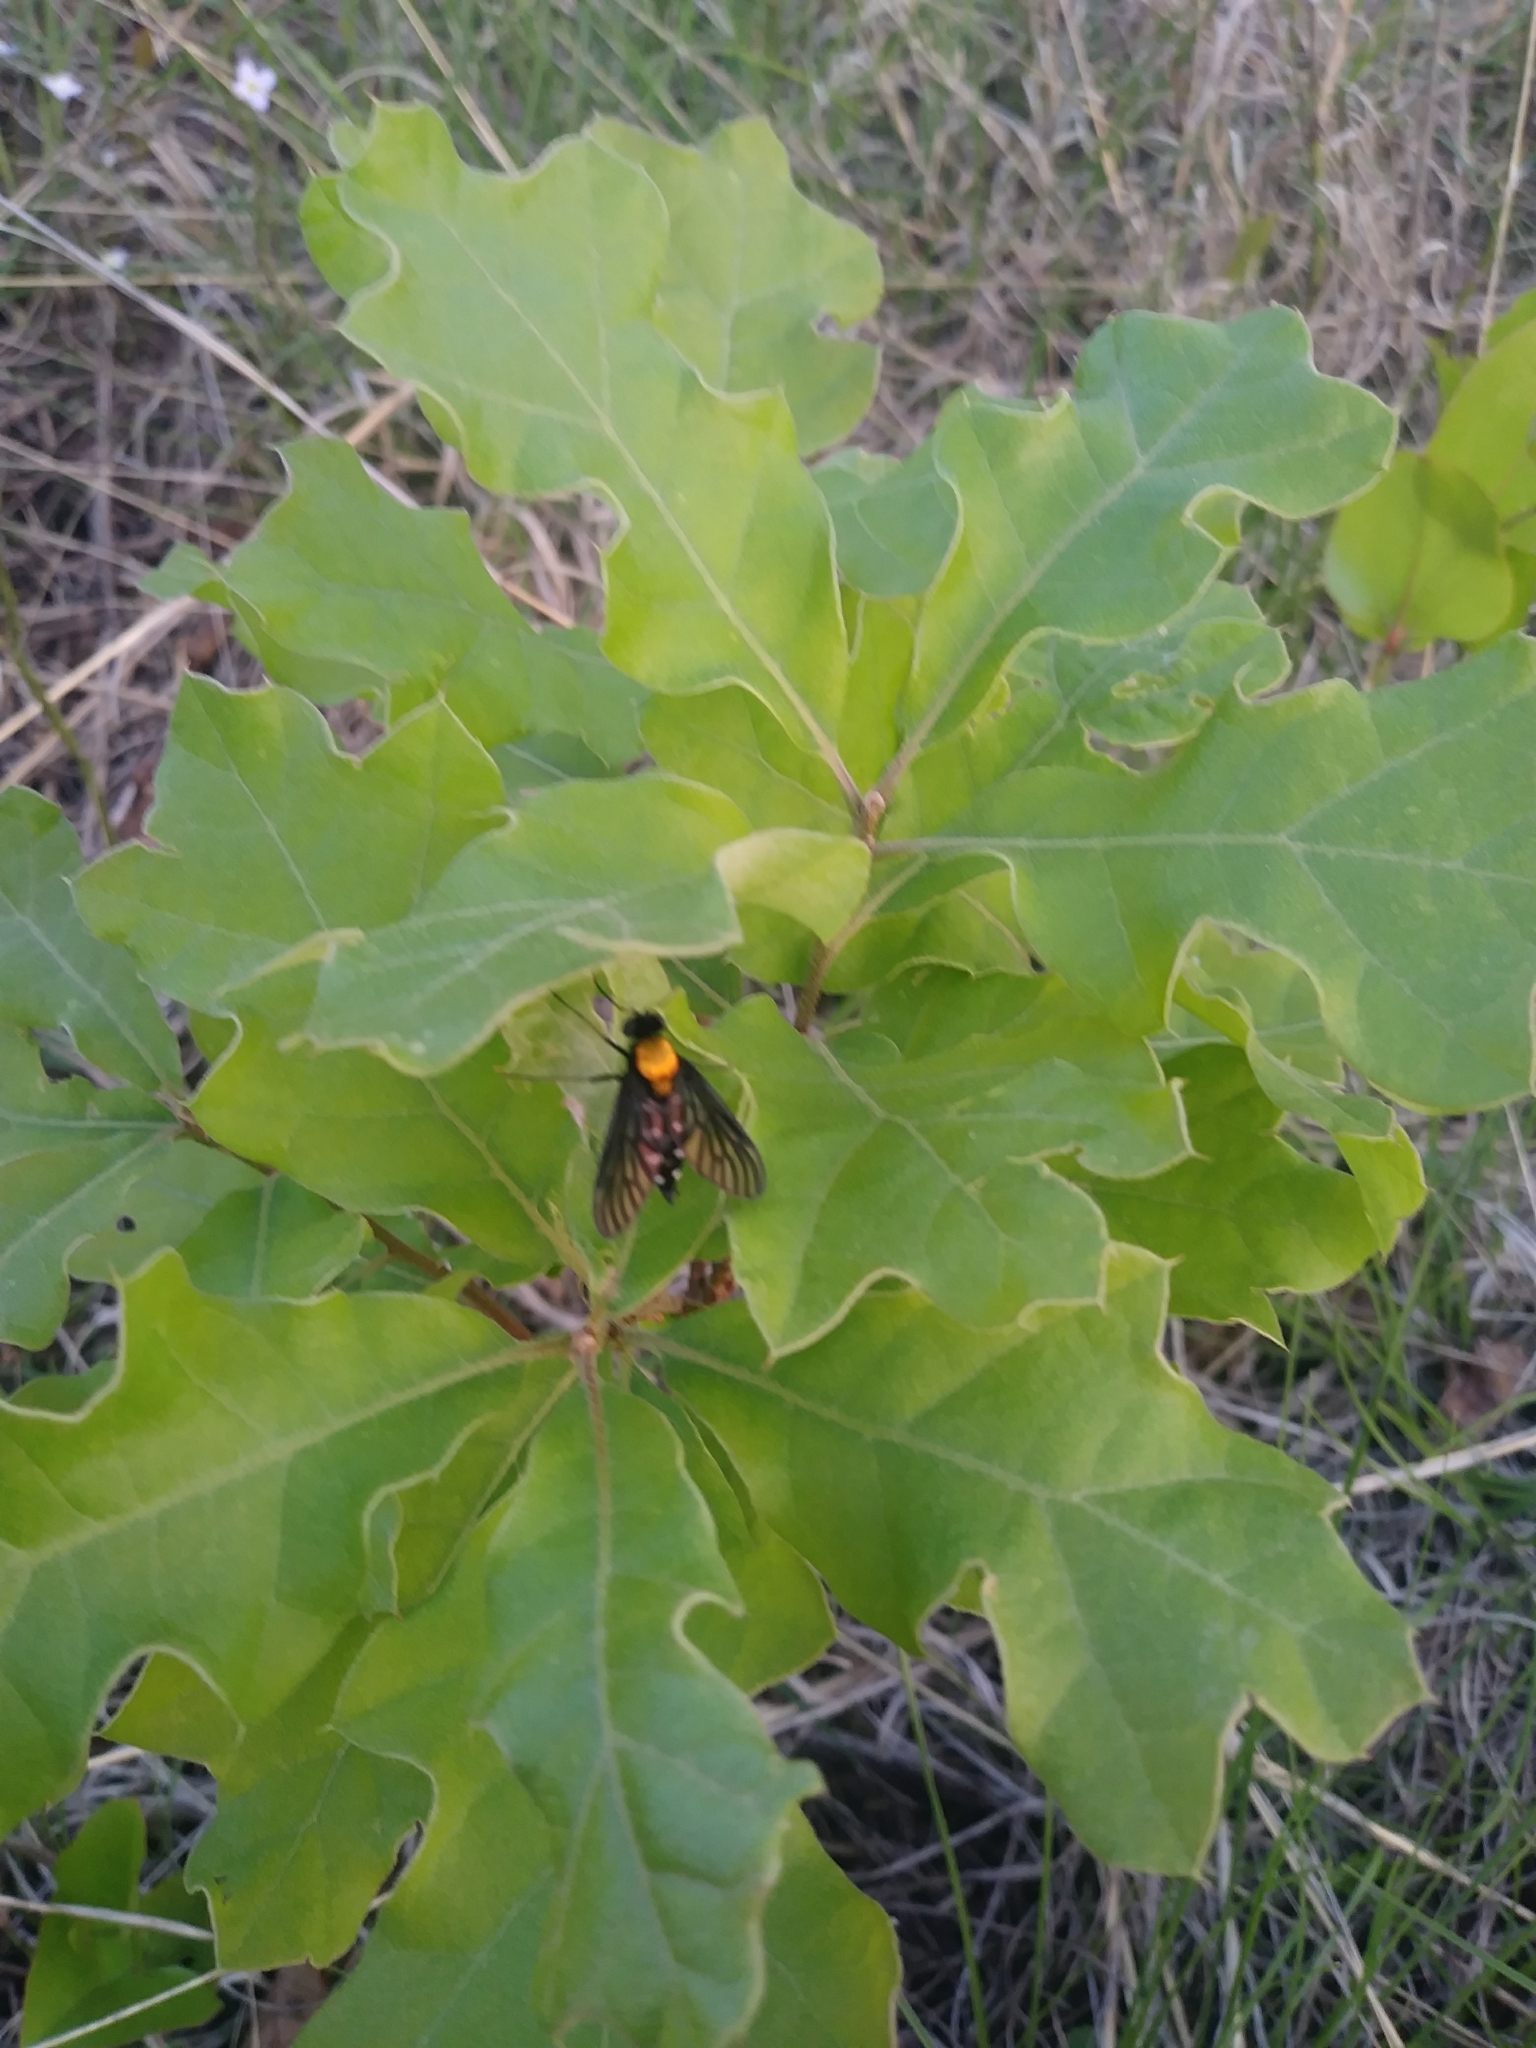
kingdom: Animalia
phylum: Arthropoda
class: Insecta
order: Diptera
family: Rhagionidae
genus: Chrysopilus
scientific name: Chrysopilus thoracicus
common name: Golden-backed snipe fly
